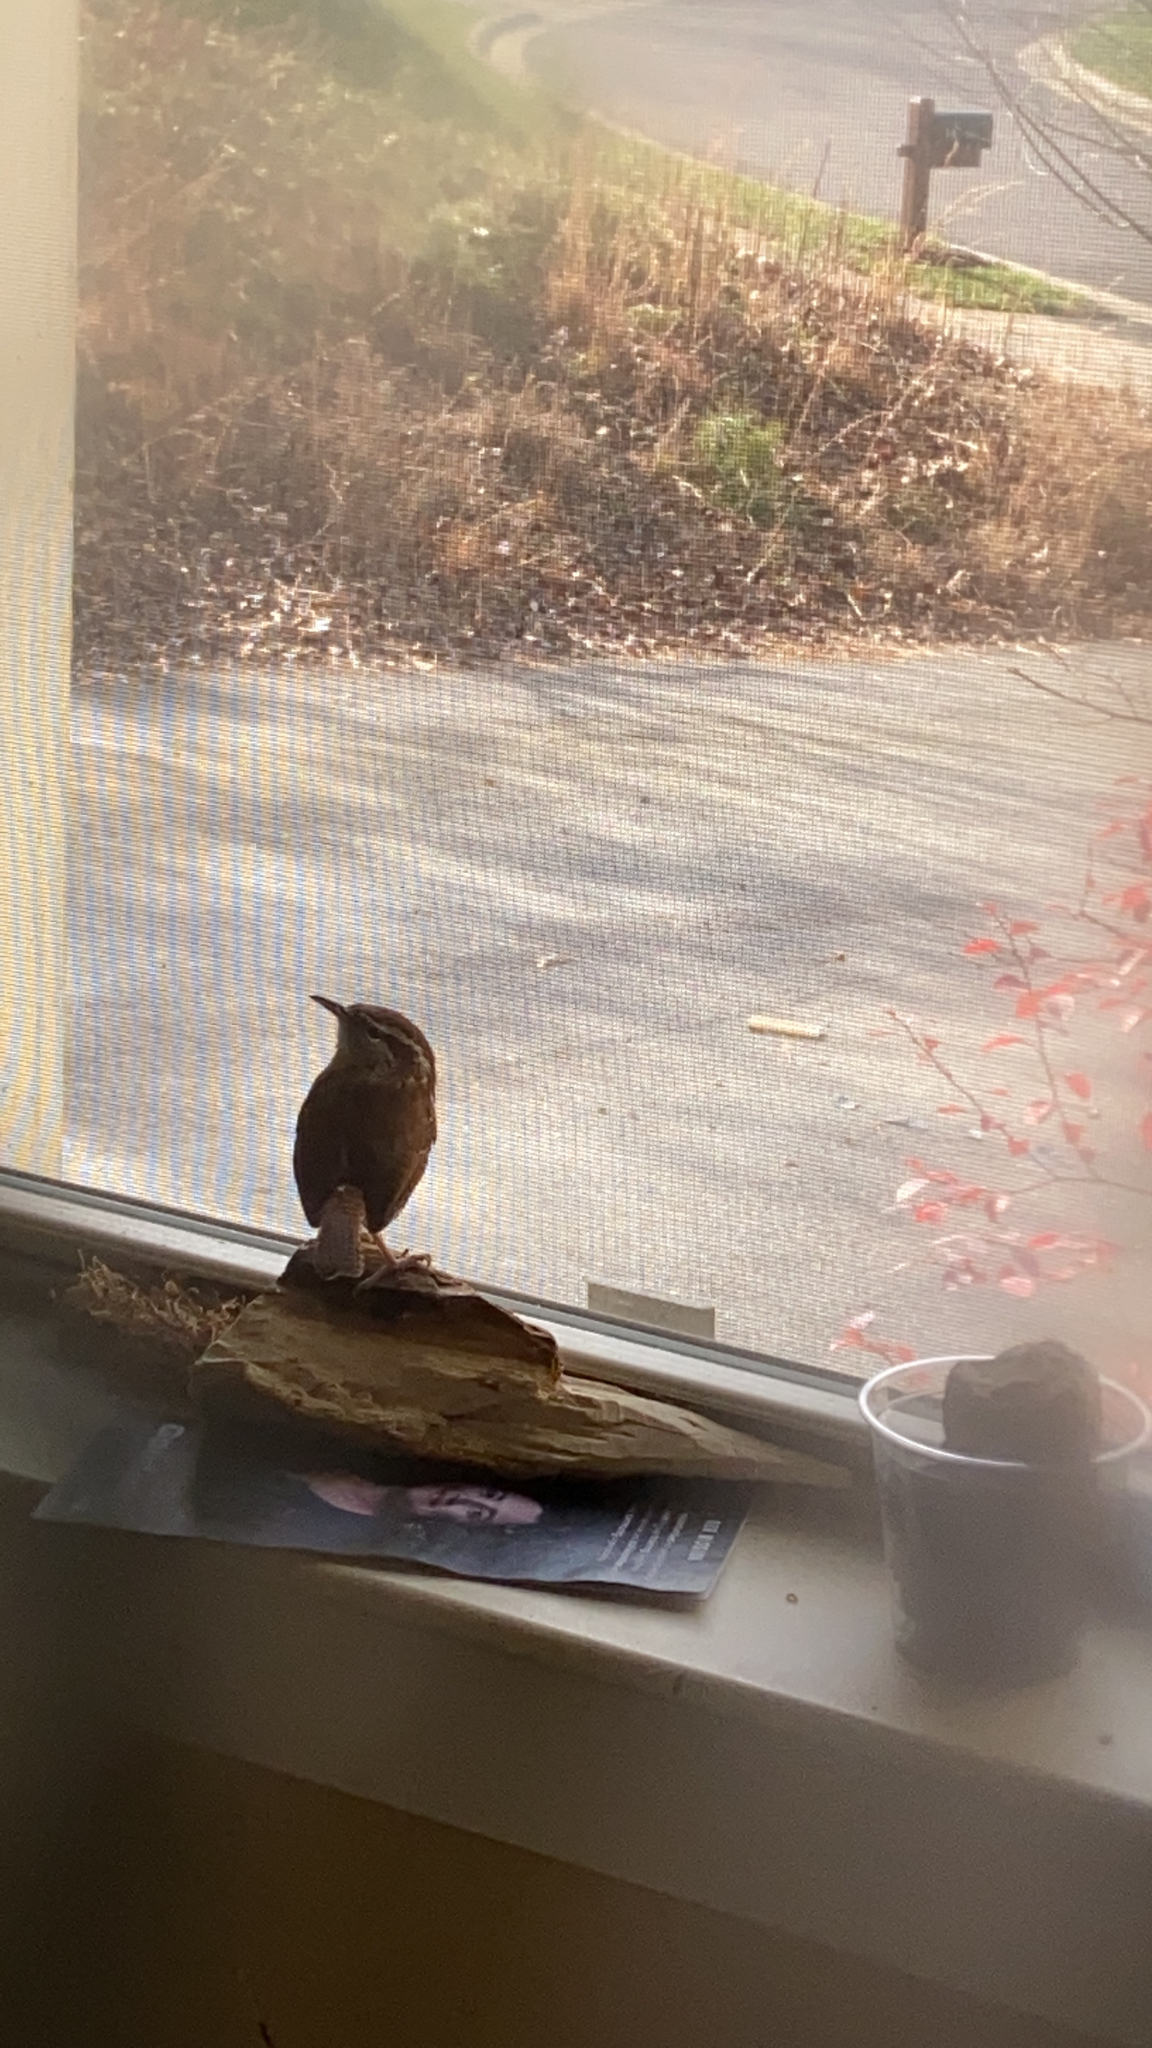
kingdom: Animalia
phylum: Chordata
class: Aves
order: Passeriformes
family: Troglodytidae
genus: Thryothorus
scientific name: Thryothorus ludovicianus
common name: Carolina wren
